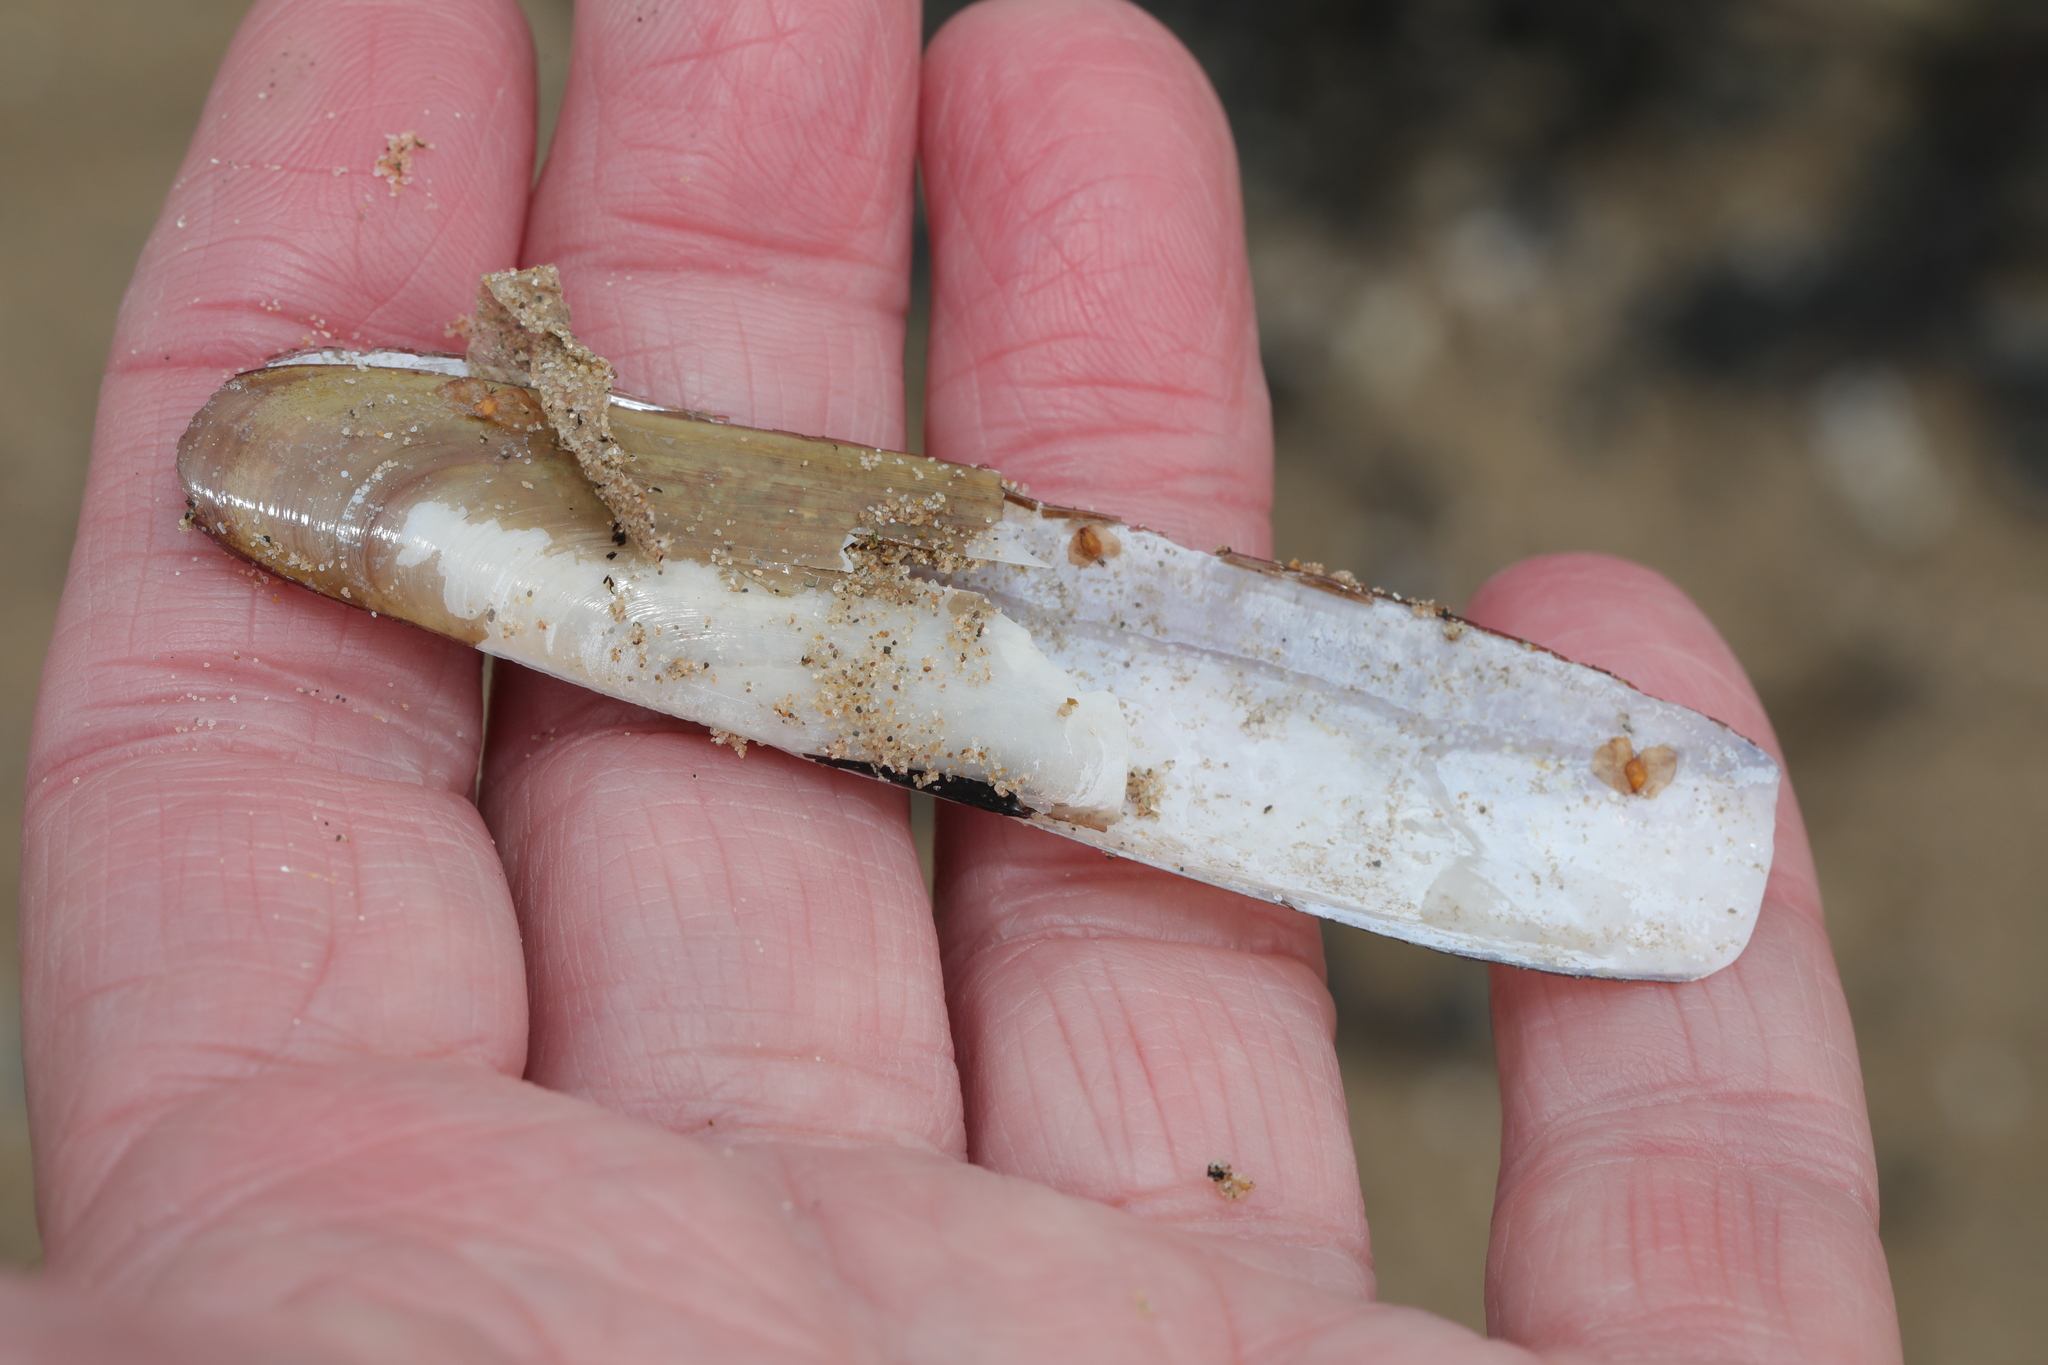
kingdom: Animalia
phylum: Mollusca
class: Bivalvia
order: Adapedonta
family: Pharidae
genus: Pharus
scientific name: Pharus legumen
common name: Bean razor clam
